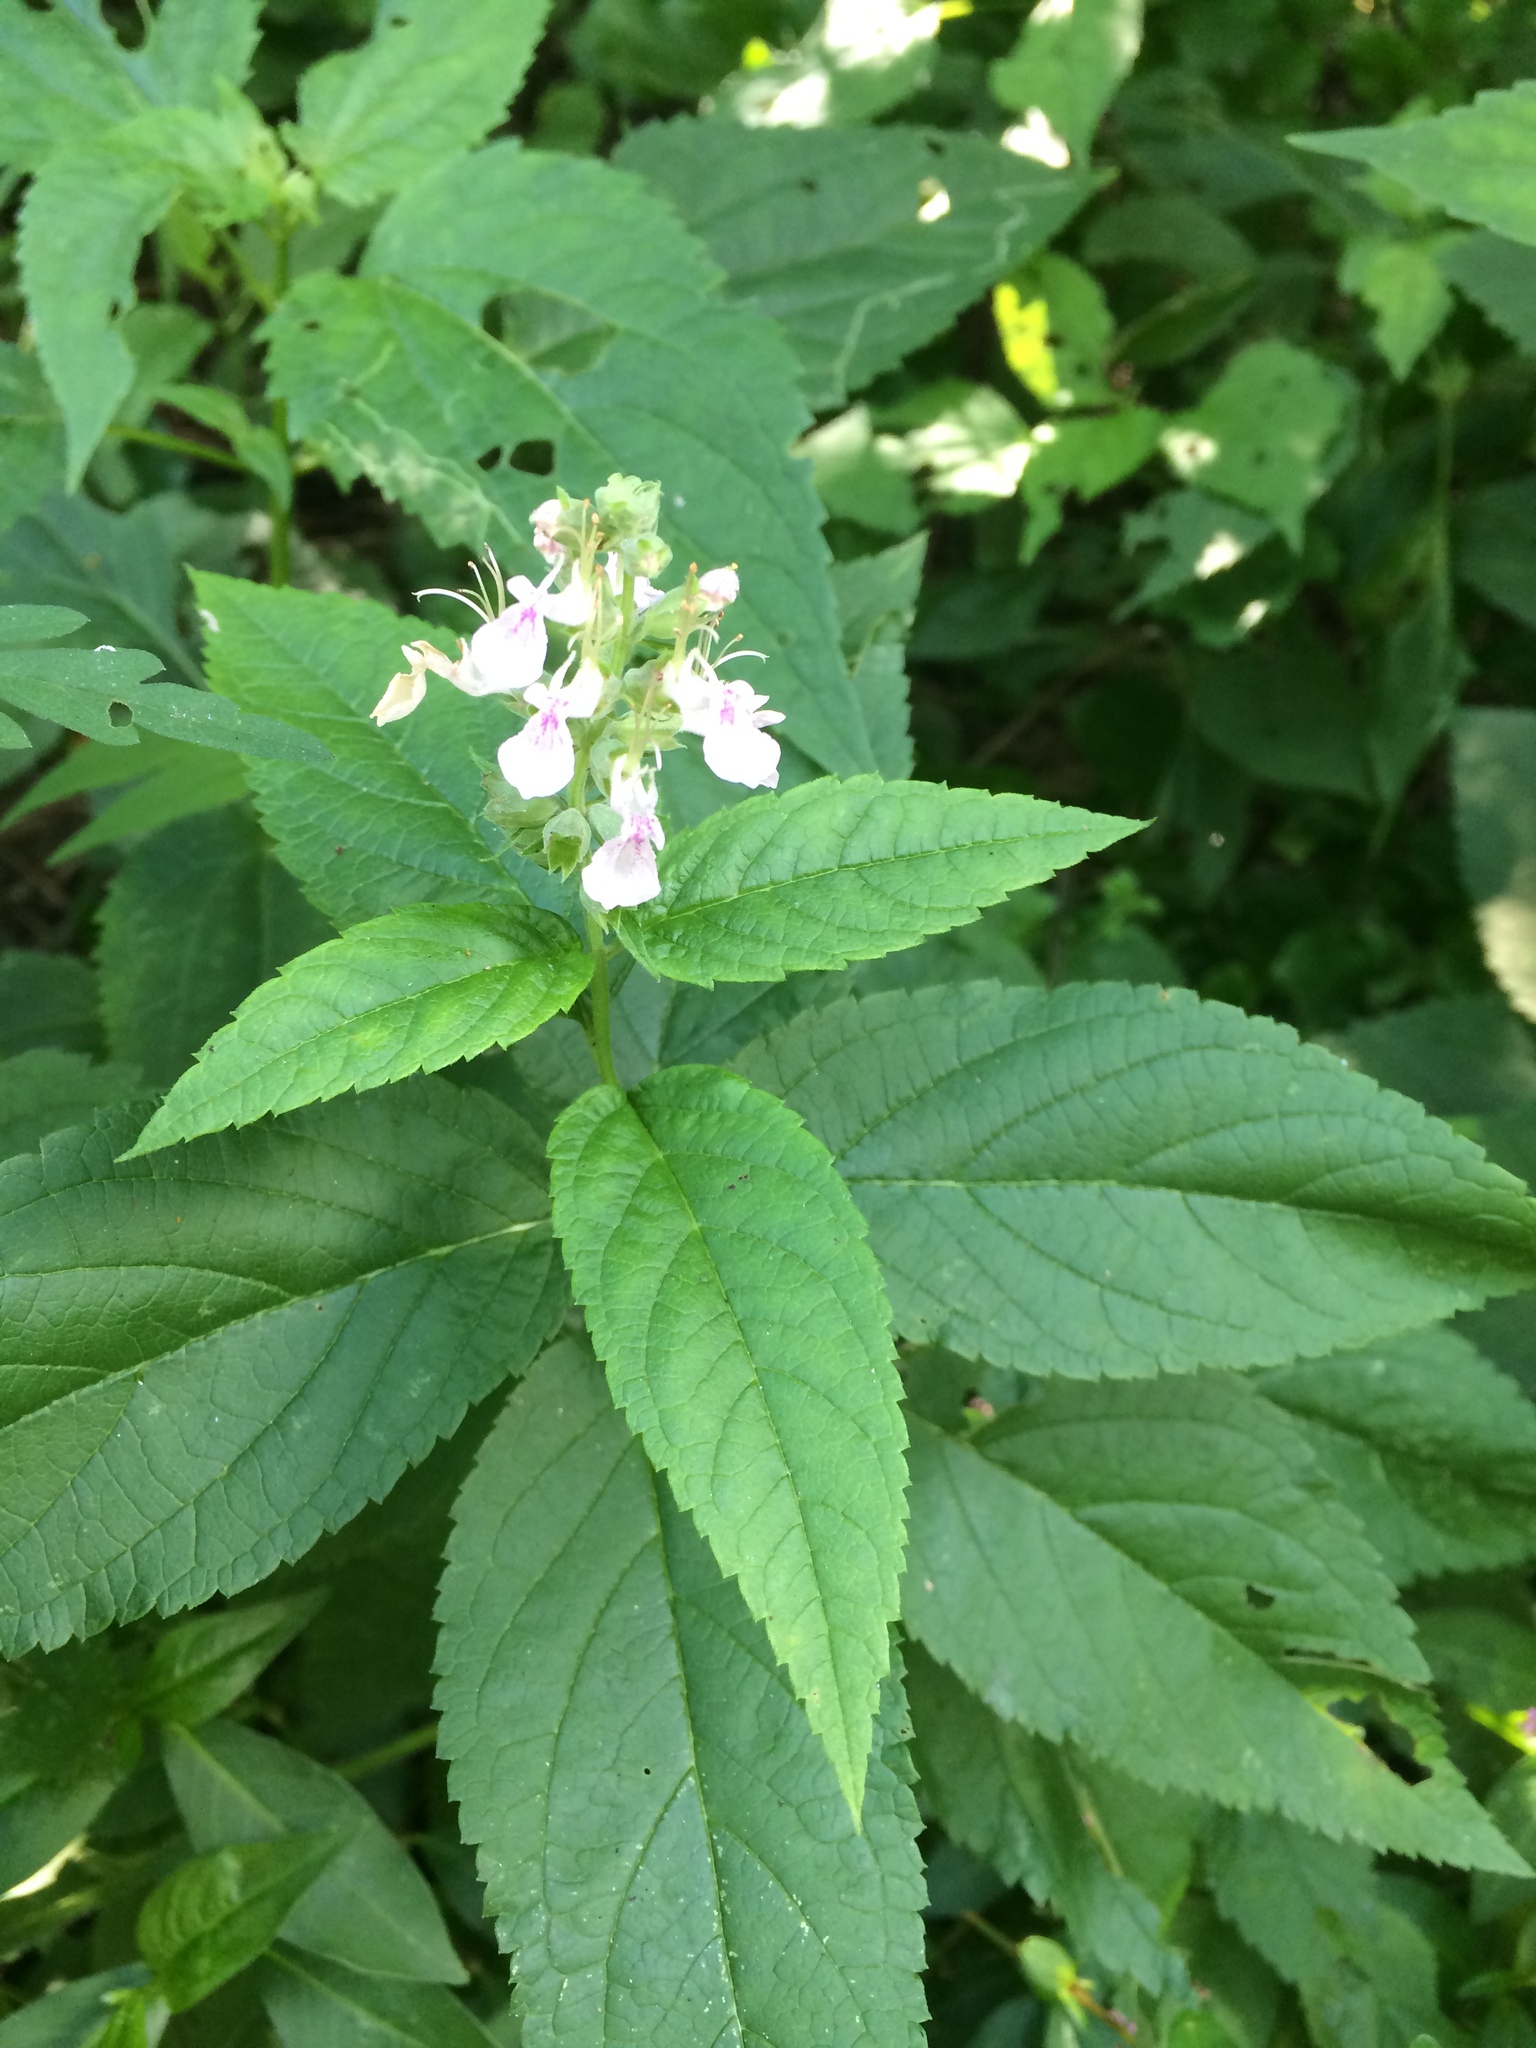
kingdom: Plantae
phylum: Tracheophyta
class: Magnoliopsida
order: Lamiales
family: Lamiaceae
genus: Teucrium
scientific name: Teucrium canadense
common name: American germander
